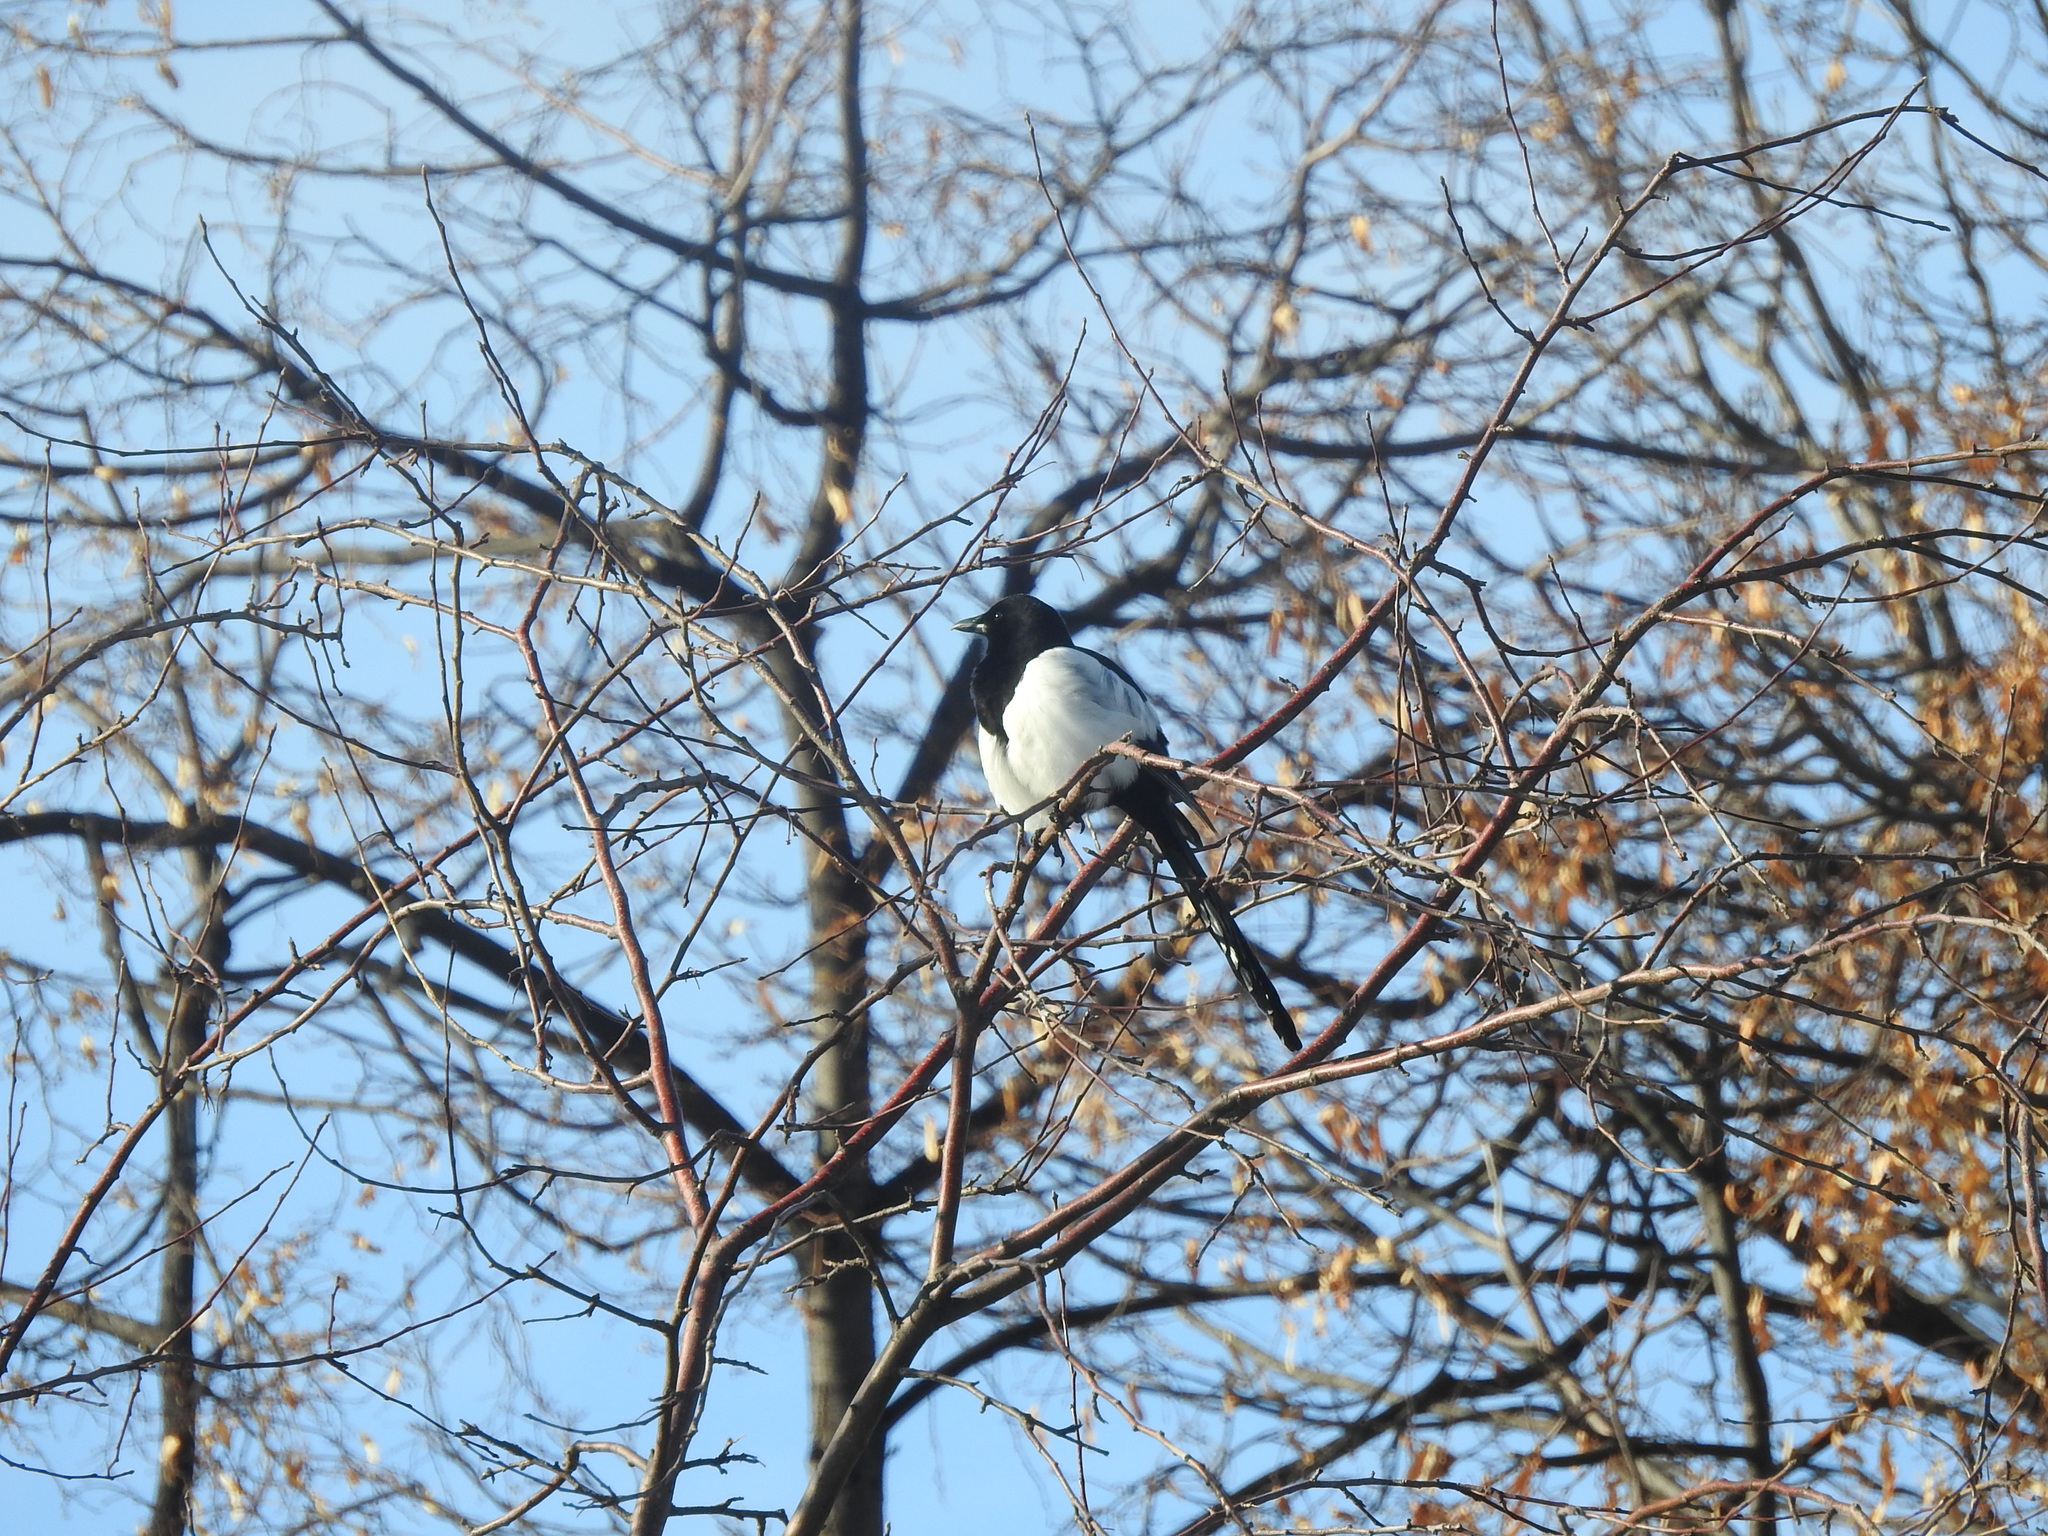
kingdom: Animalia
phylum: Chordata
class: Aves
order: Passeriformes
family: Corvidae
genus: Pica
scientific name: Pica pica
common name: Eurasian magpie
